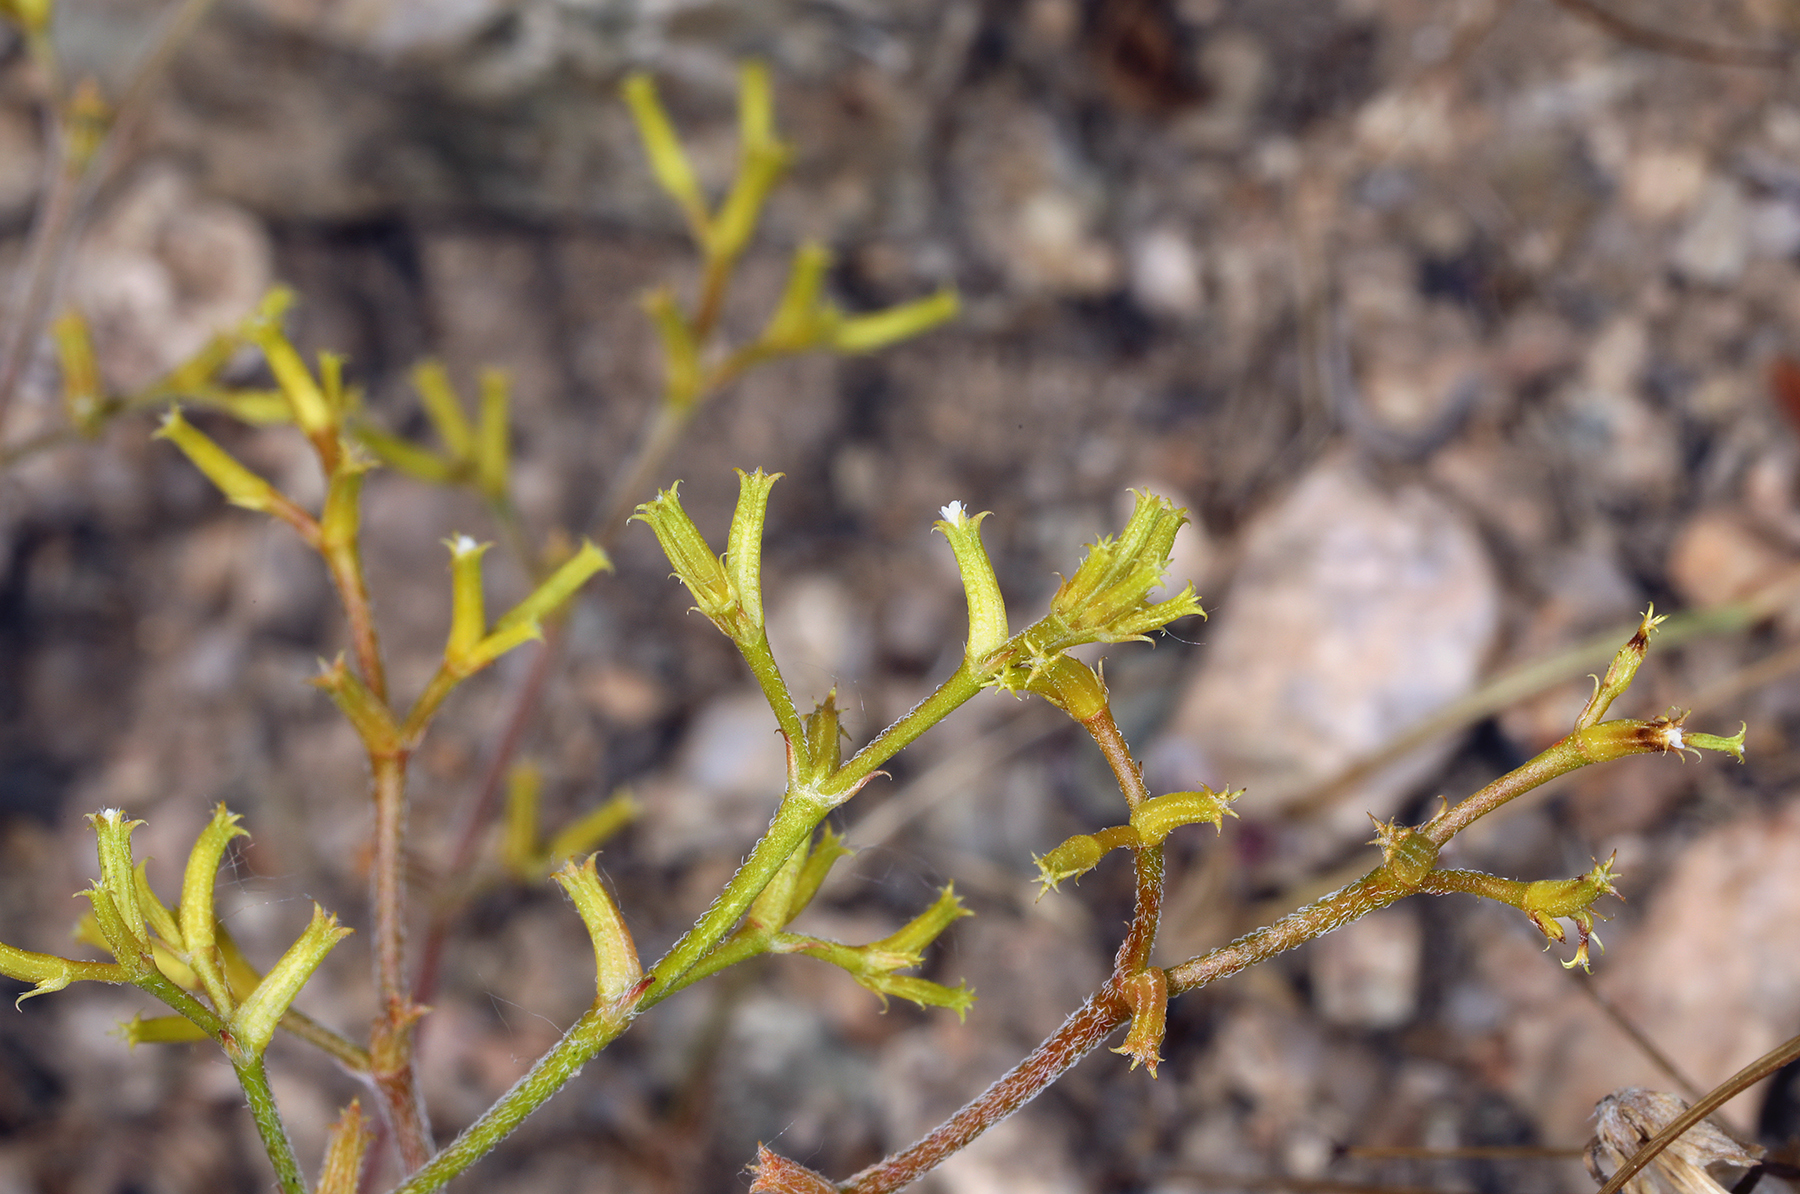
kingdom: Plantae
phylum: Tracheophyta
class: Magnoliopsida
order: Caryophyllales
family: Polygonaceae
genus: Chorizanthe
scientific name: Chorizanthe brevicornu
